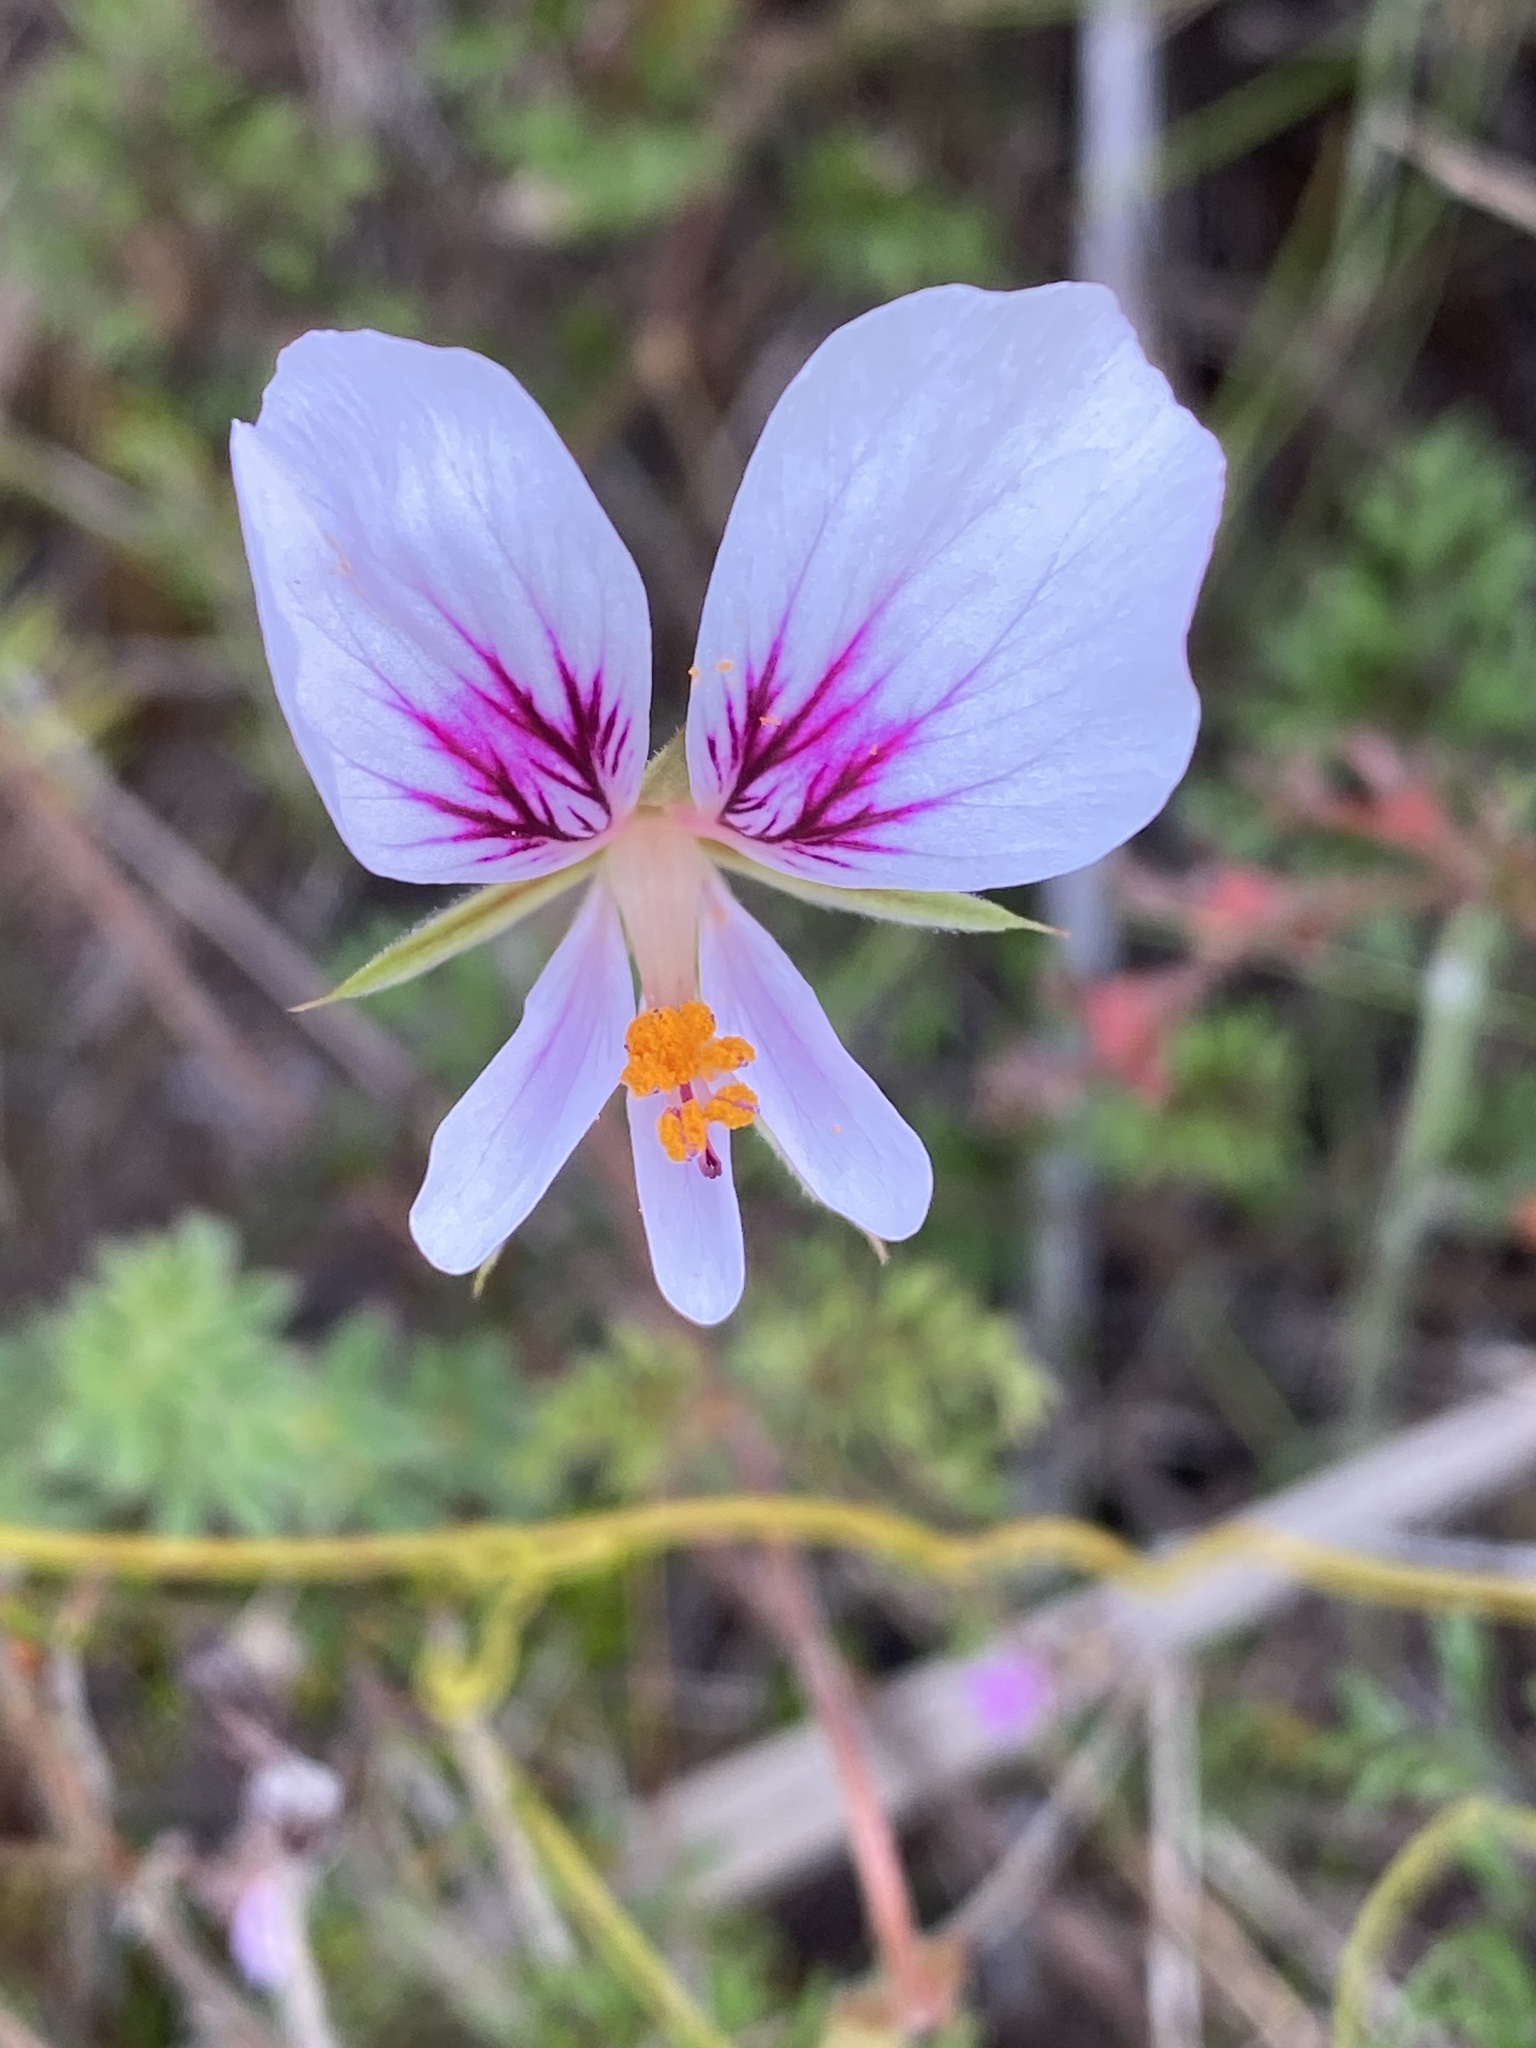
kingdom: Plantae
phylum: Tracheophyta
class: Magnoliopsida
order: Geraniales
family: Geraniaceae
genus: Pelargonium
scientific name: Pelargonium myrrhifolium
